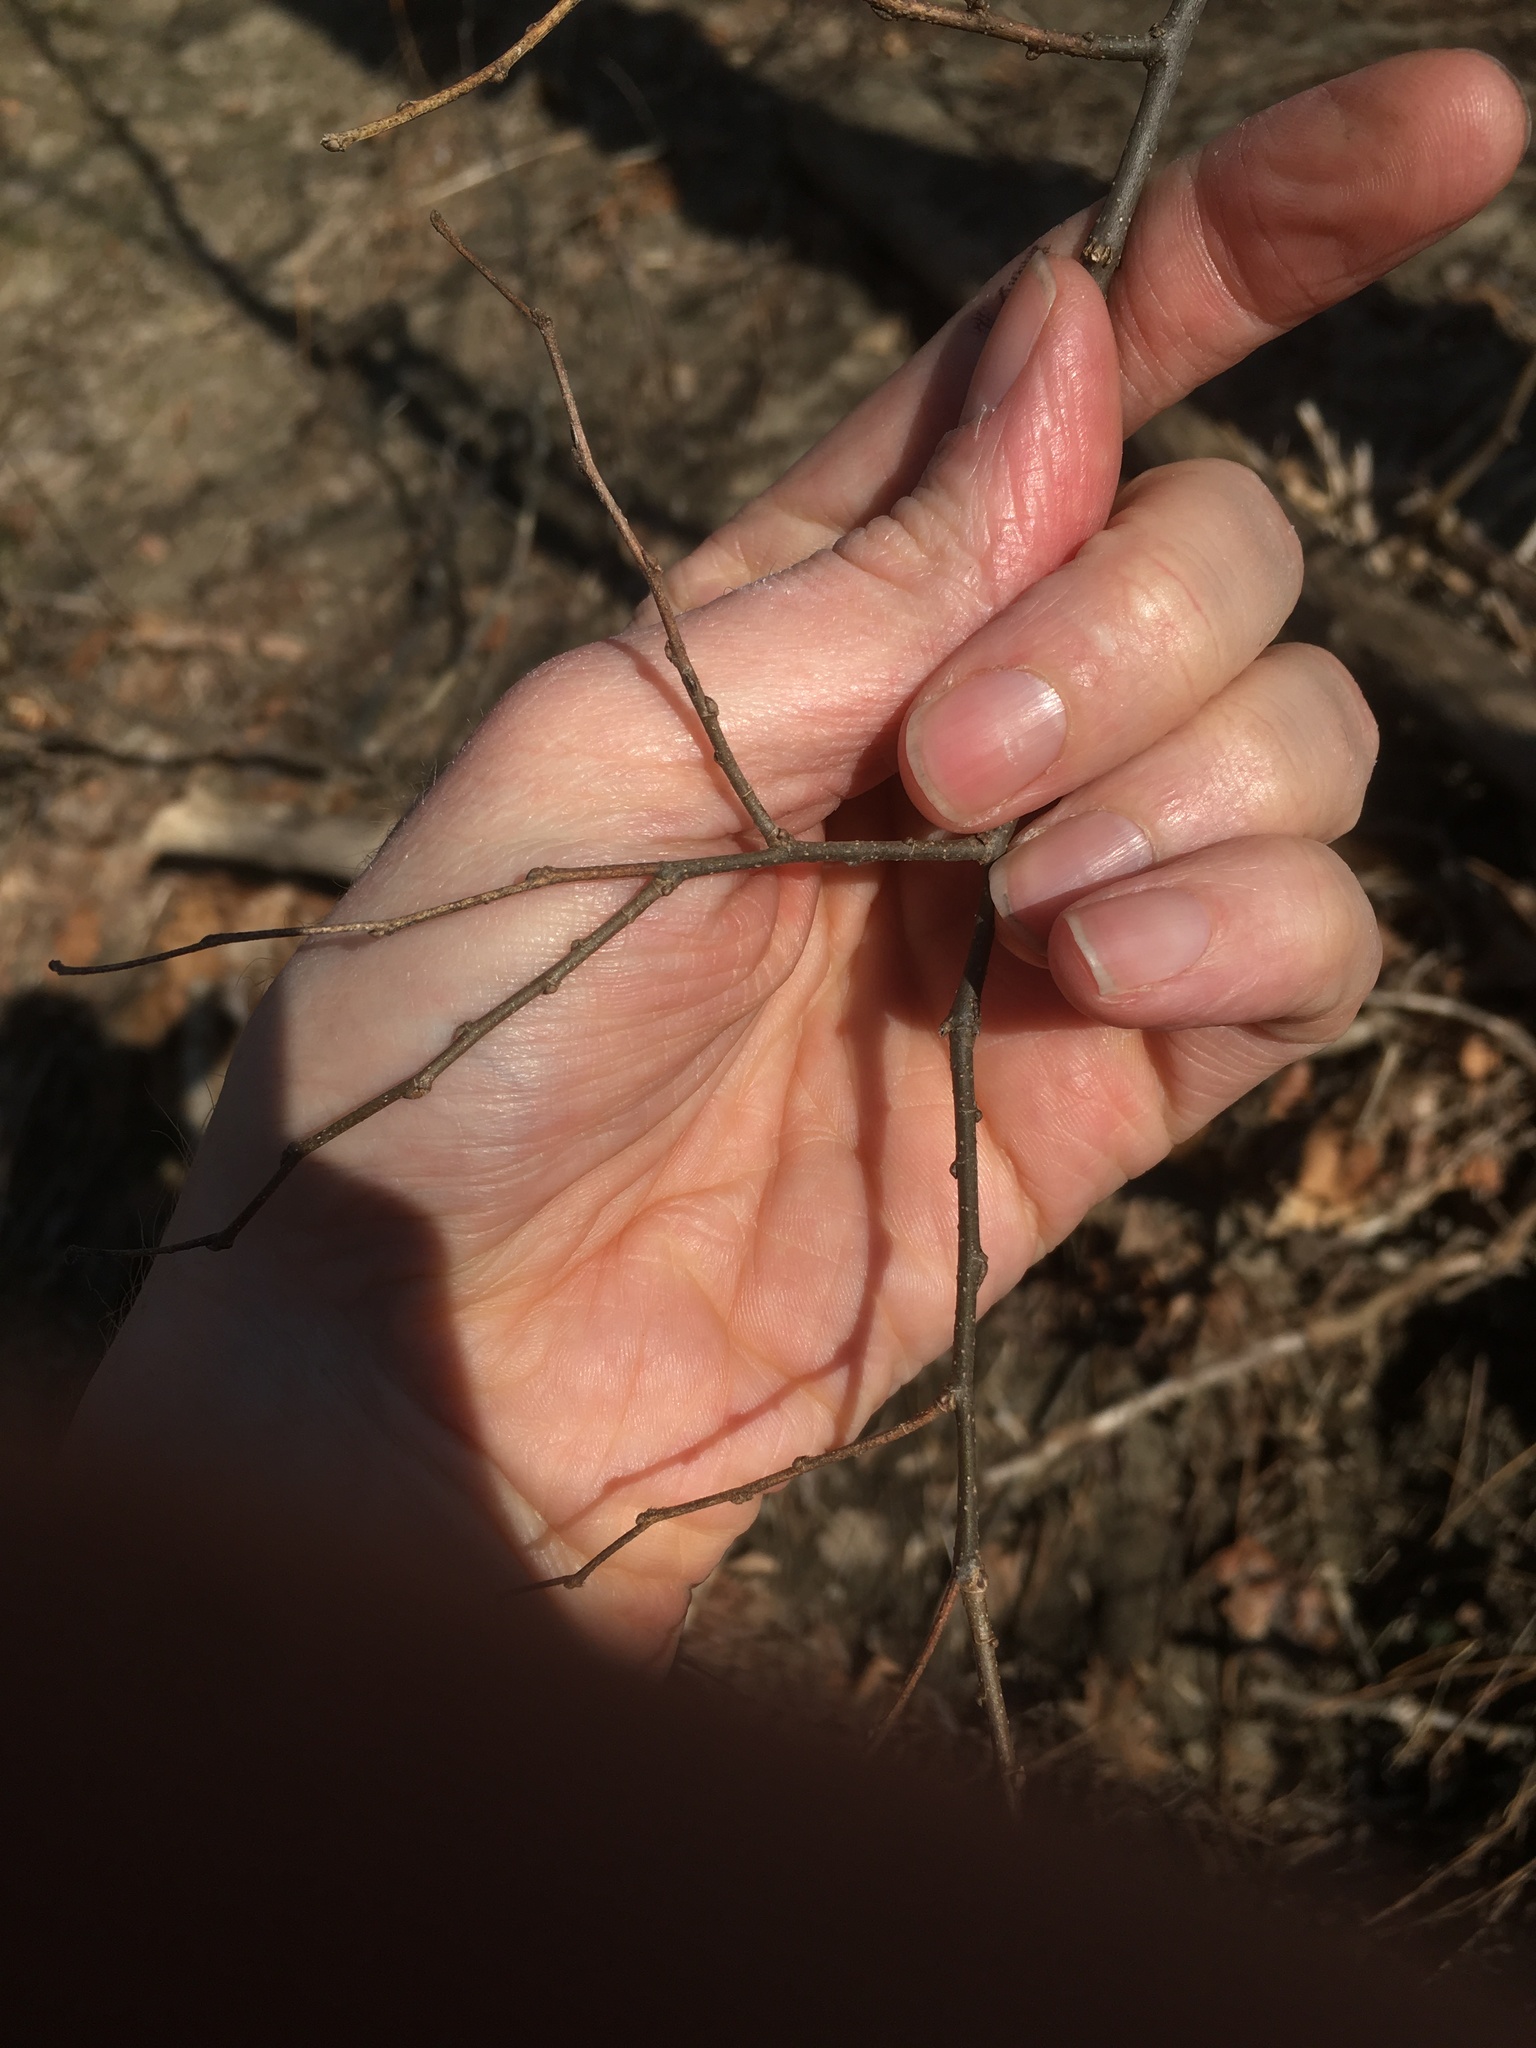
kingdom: Plantae
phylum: Tracheophyta
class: Magnoliopsida
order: Rosales
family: Cannabaceae
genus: Celtis
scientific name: Celtis occidentalis
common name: Common hackberry
